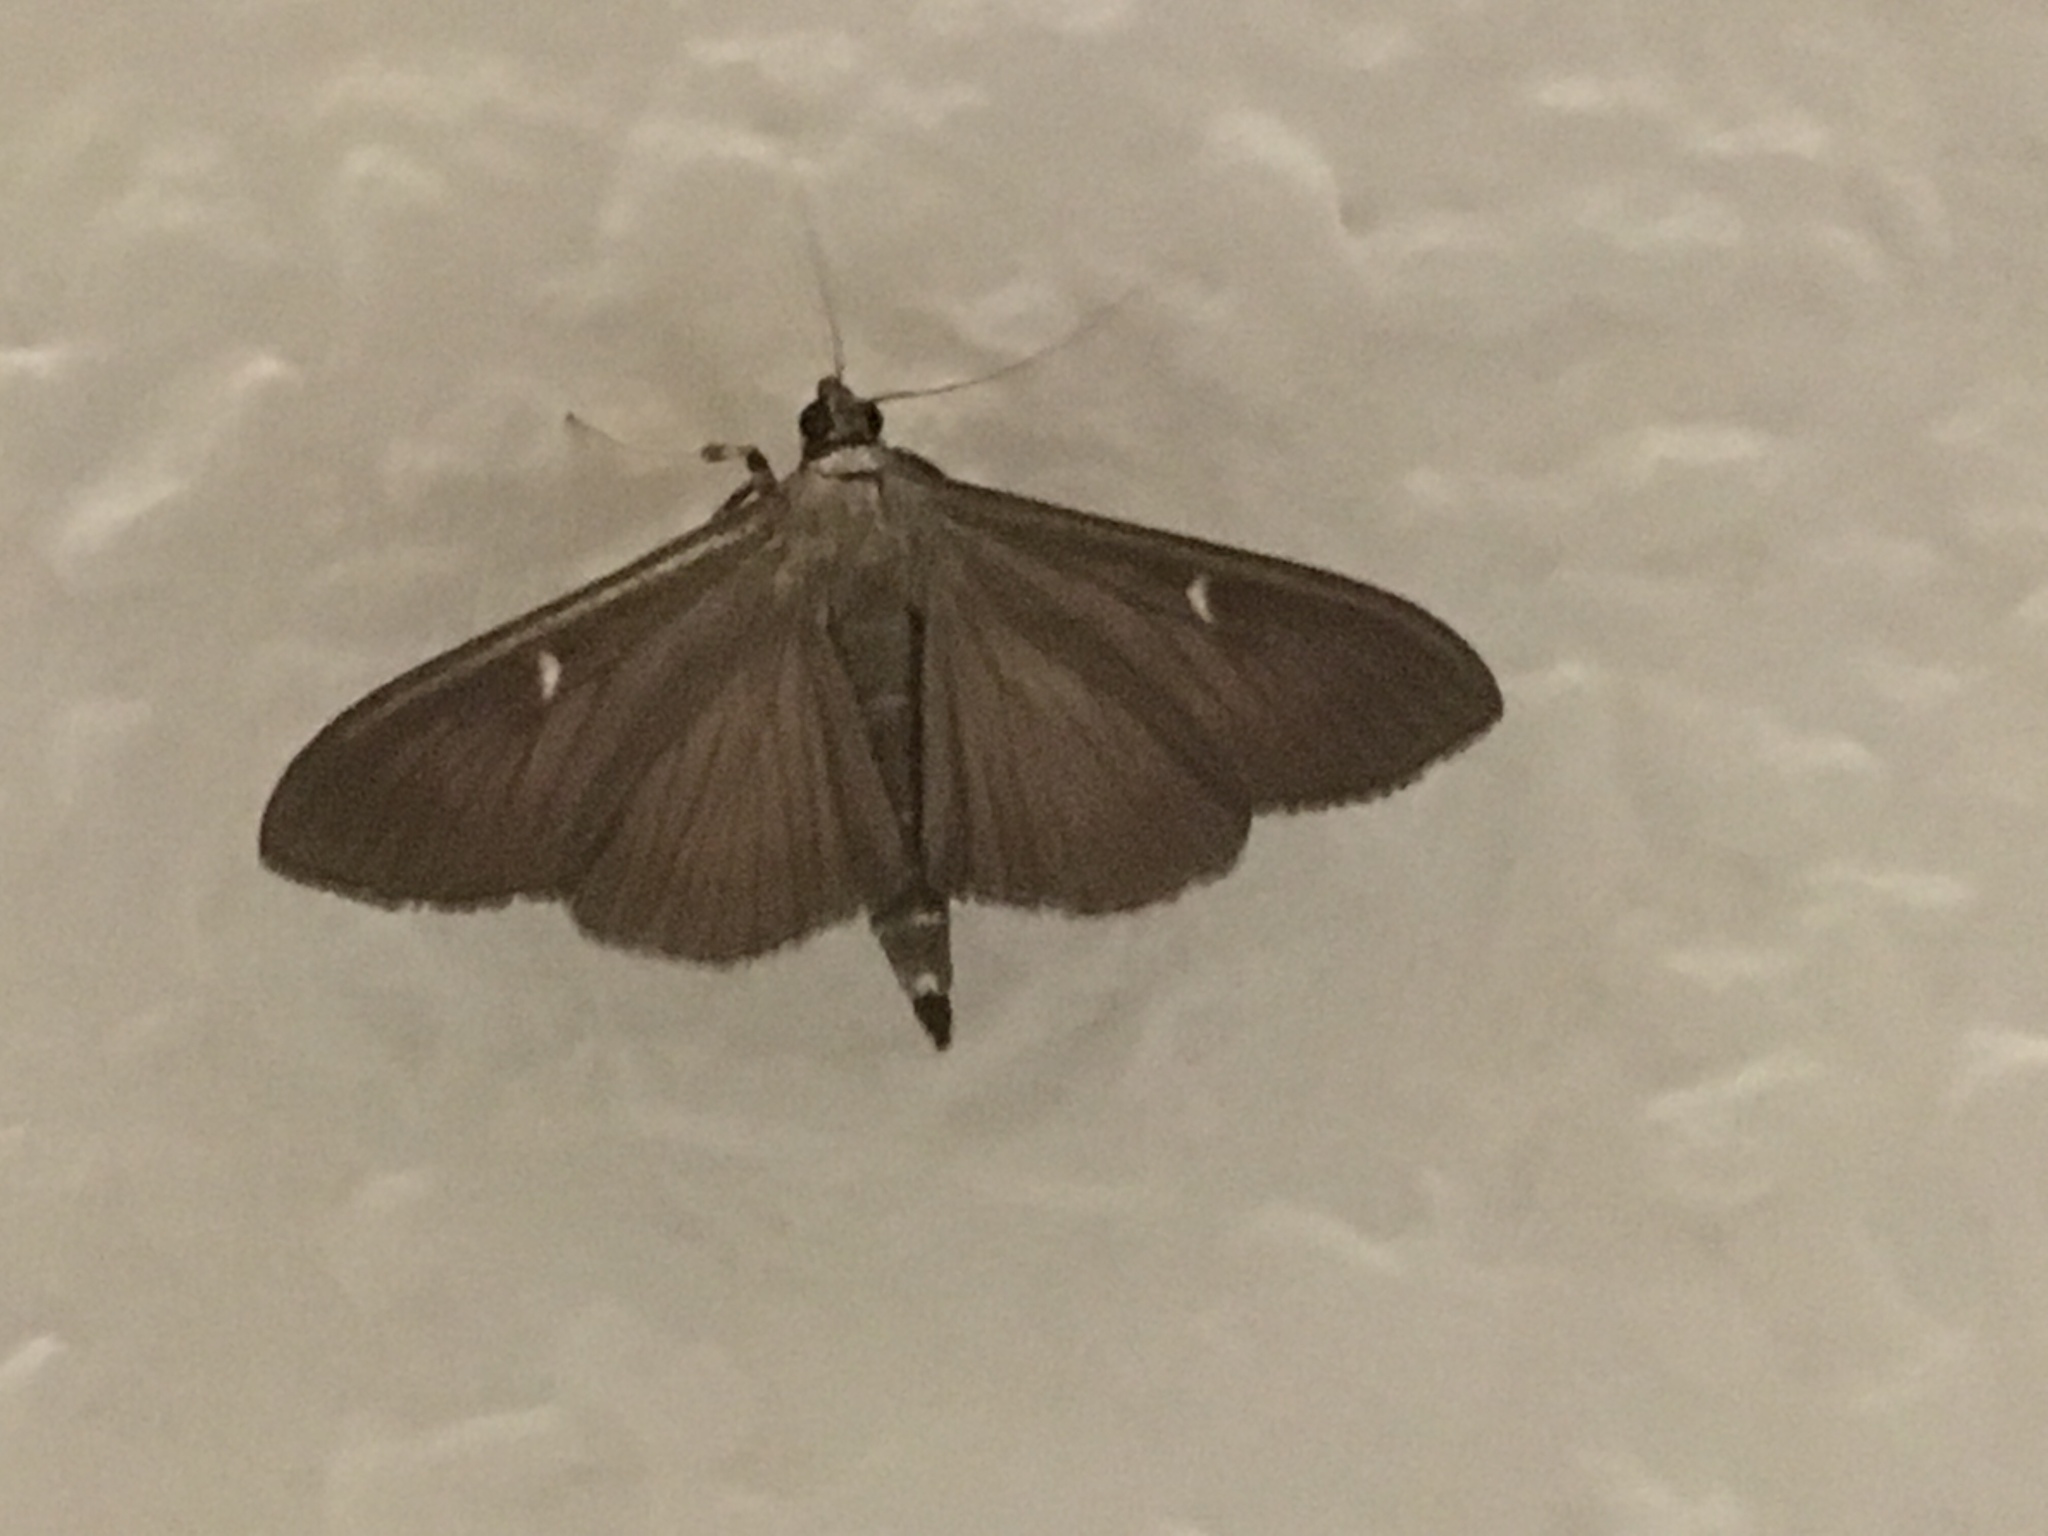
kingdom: Animalia
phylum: Arthropoda
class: Insecta
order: Lepidoptera
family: Crambidae
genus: Cydalima
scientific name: Cydalima perspectalis
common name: Box tree moth
